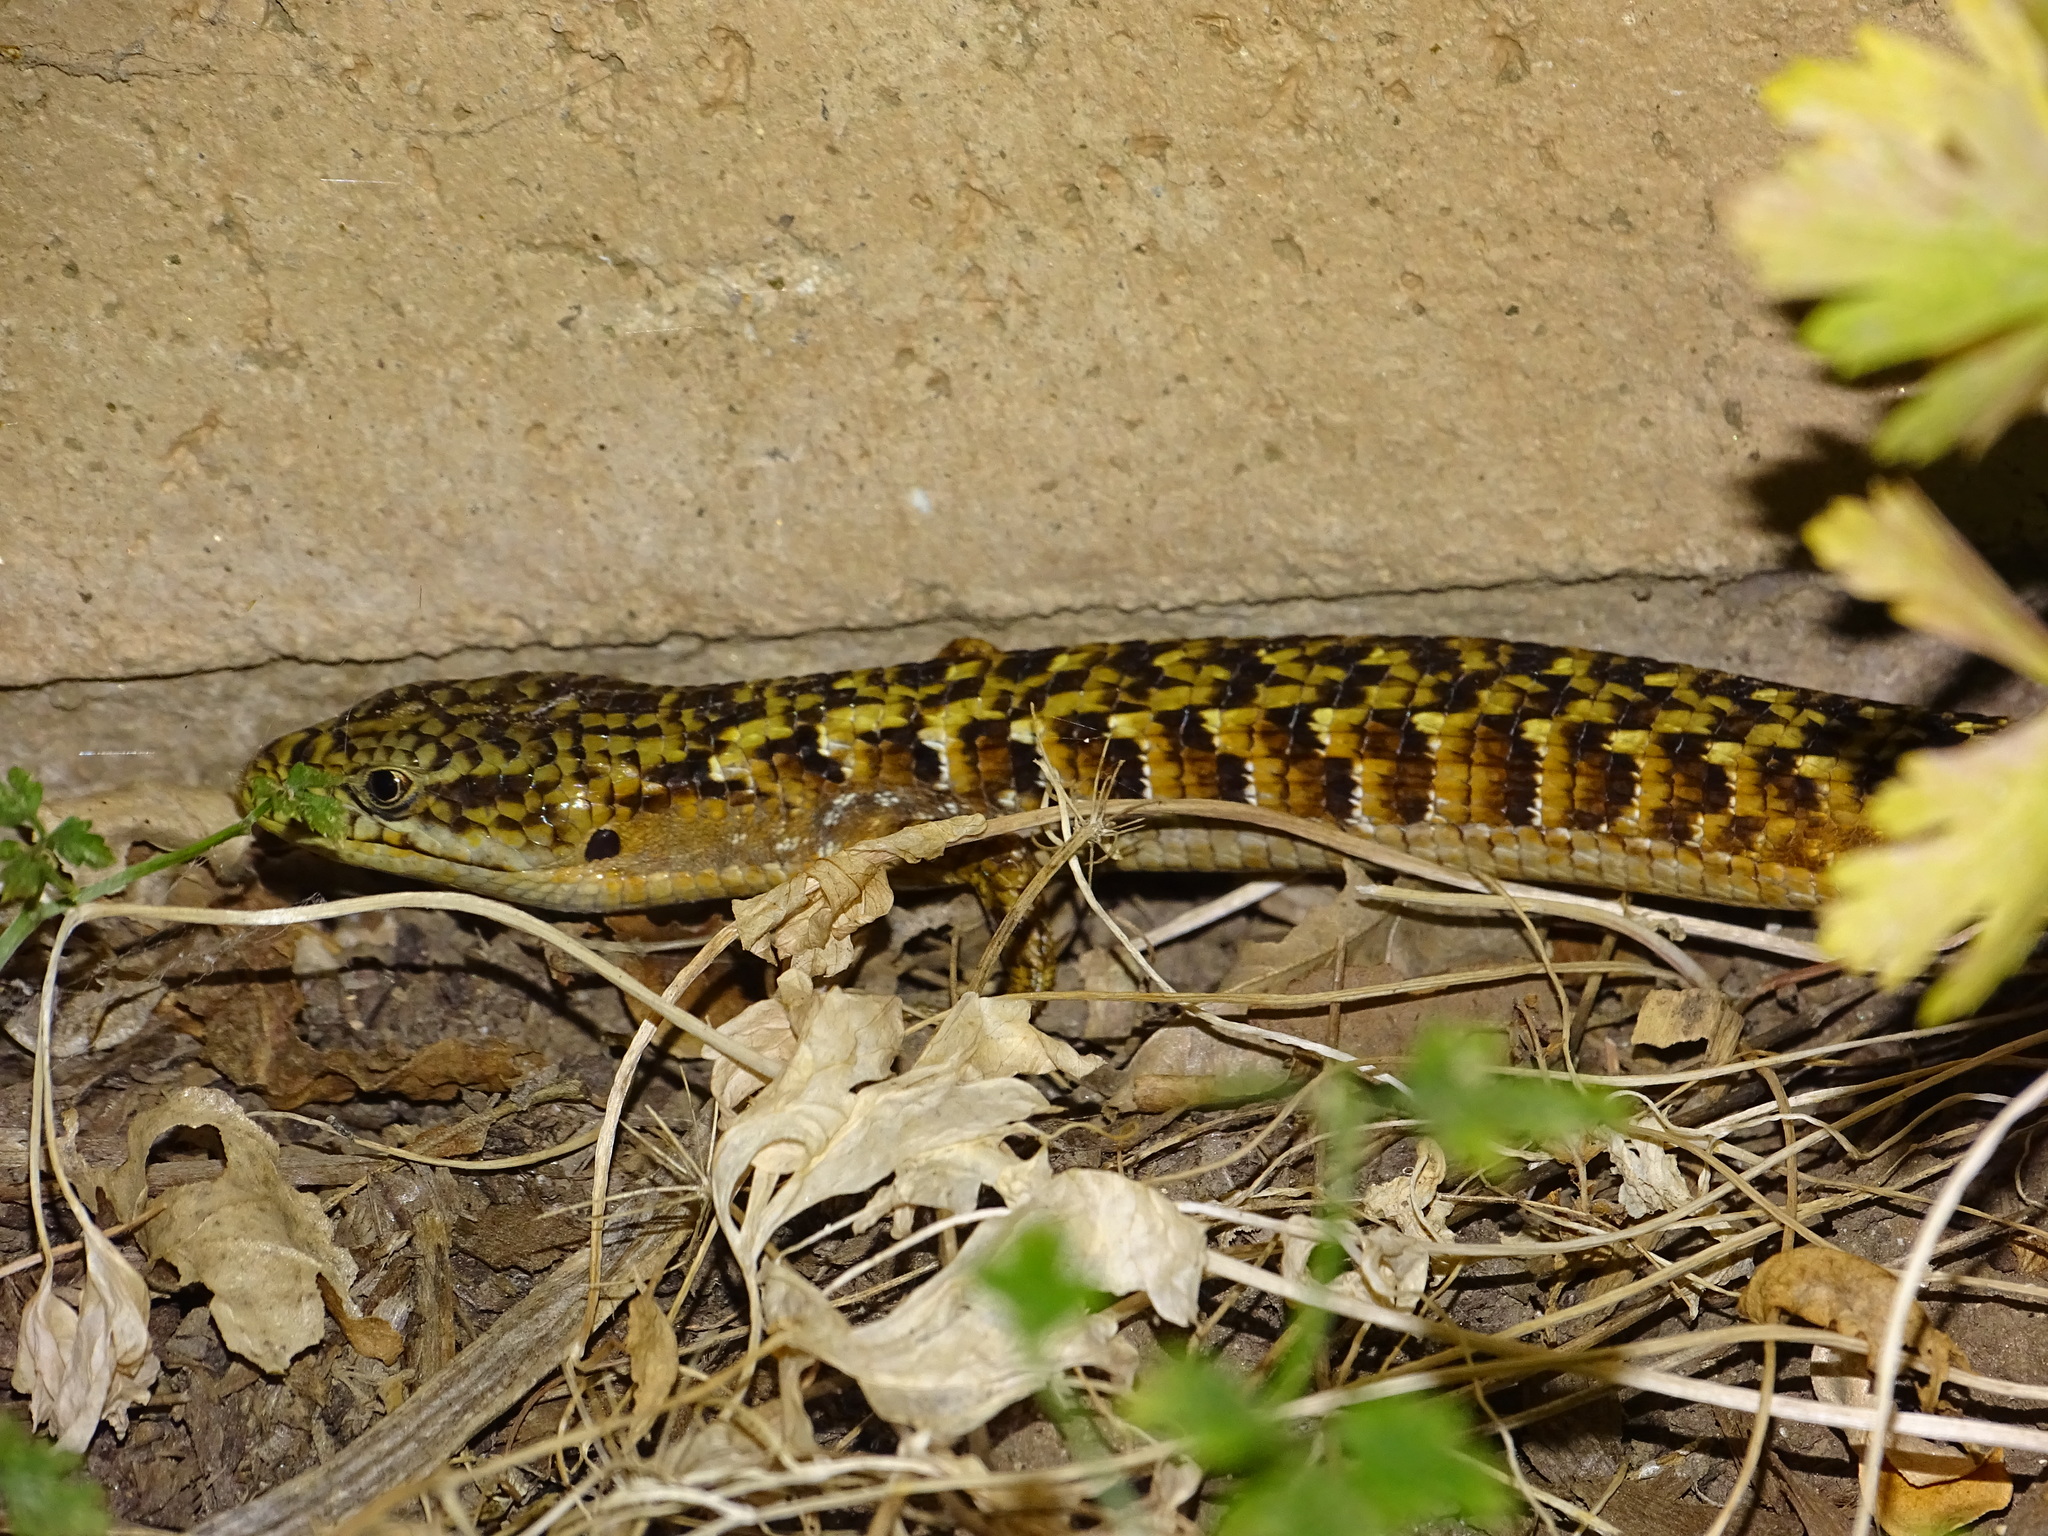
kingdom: Animalia
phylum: Chordata
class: Squamata
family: Anguidae
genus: Elgaria
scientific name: Elgaria multicarinata
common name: Southern alligator lizard
